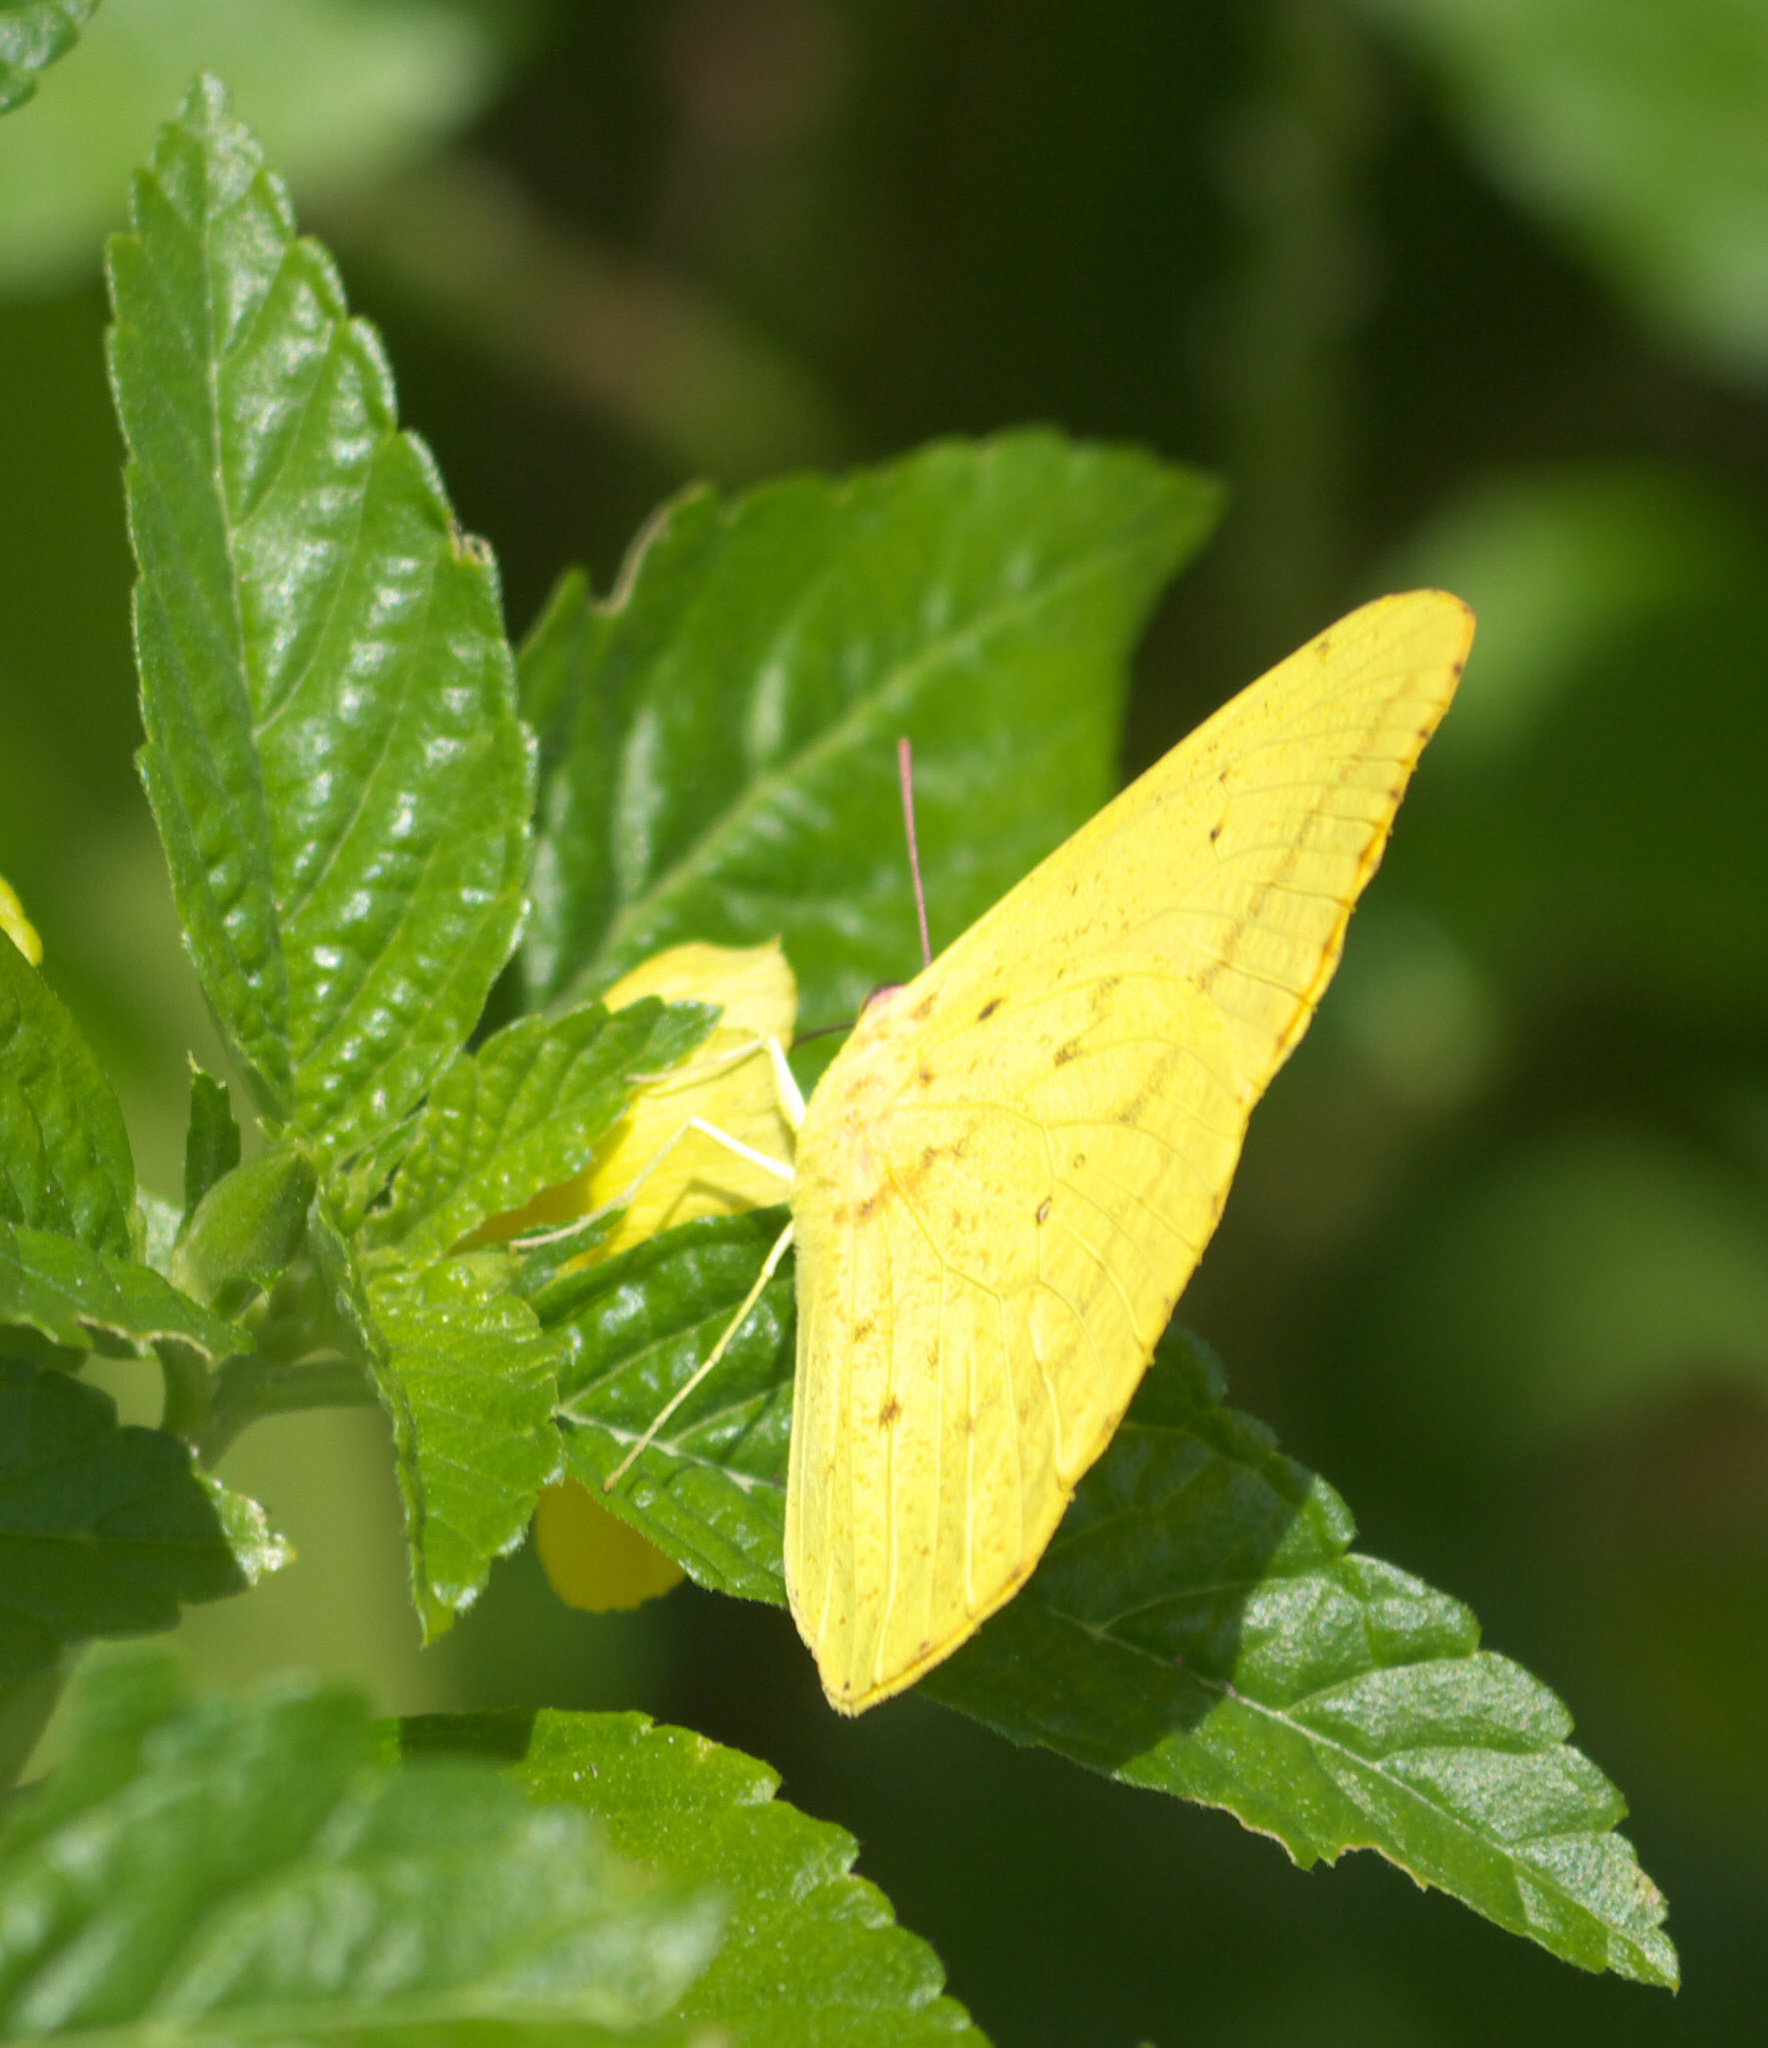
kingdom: Animalia
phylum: Arthropoda
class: Insecta
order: Lepidoptera
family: Pieridae
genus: Phoebis
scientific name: Phoebis agarithe
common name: Large orange sulphur
